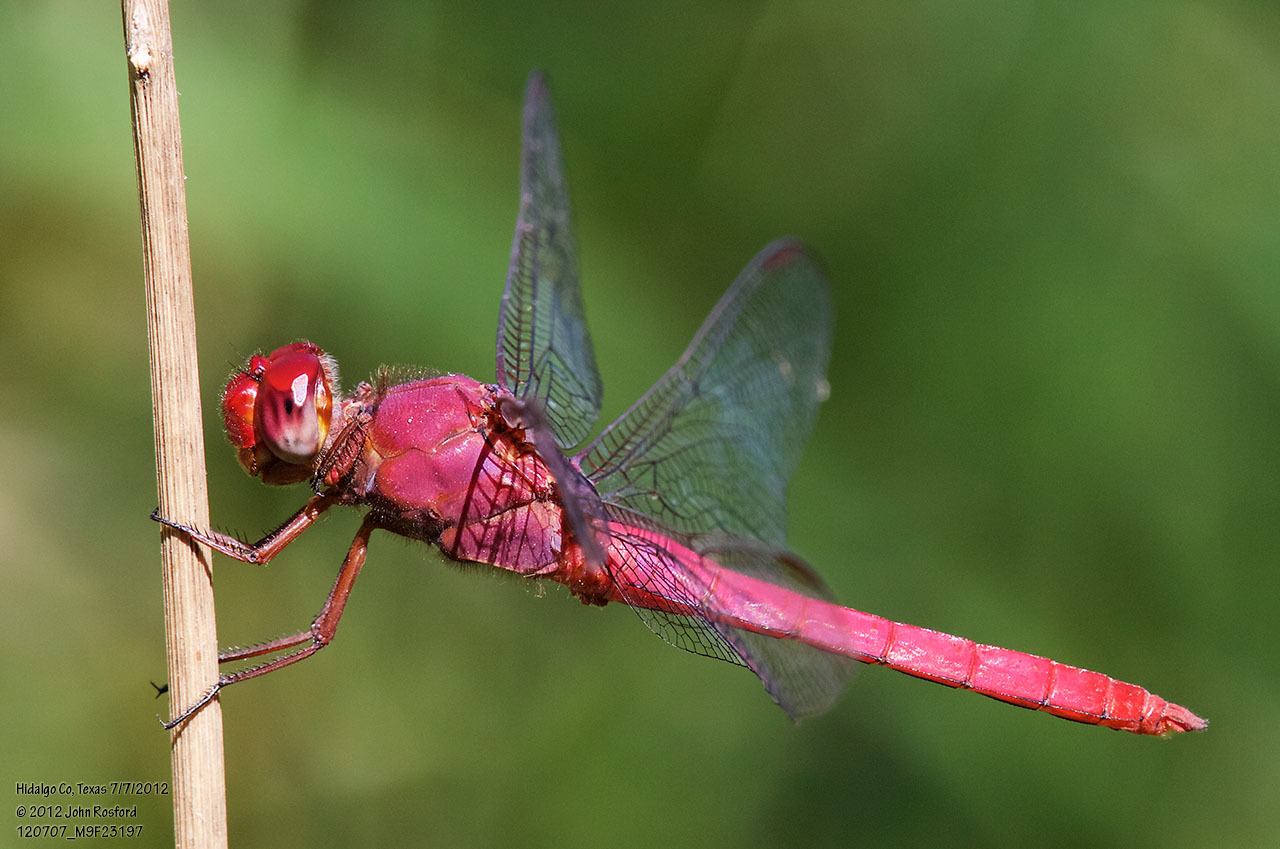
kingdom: Animalia
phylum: Arthropoda
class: Insecta
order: Odonata
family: Libellulidae
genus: Orthemis
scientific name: Orthemis discolor
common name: Carmine skimmer
